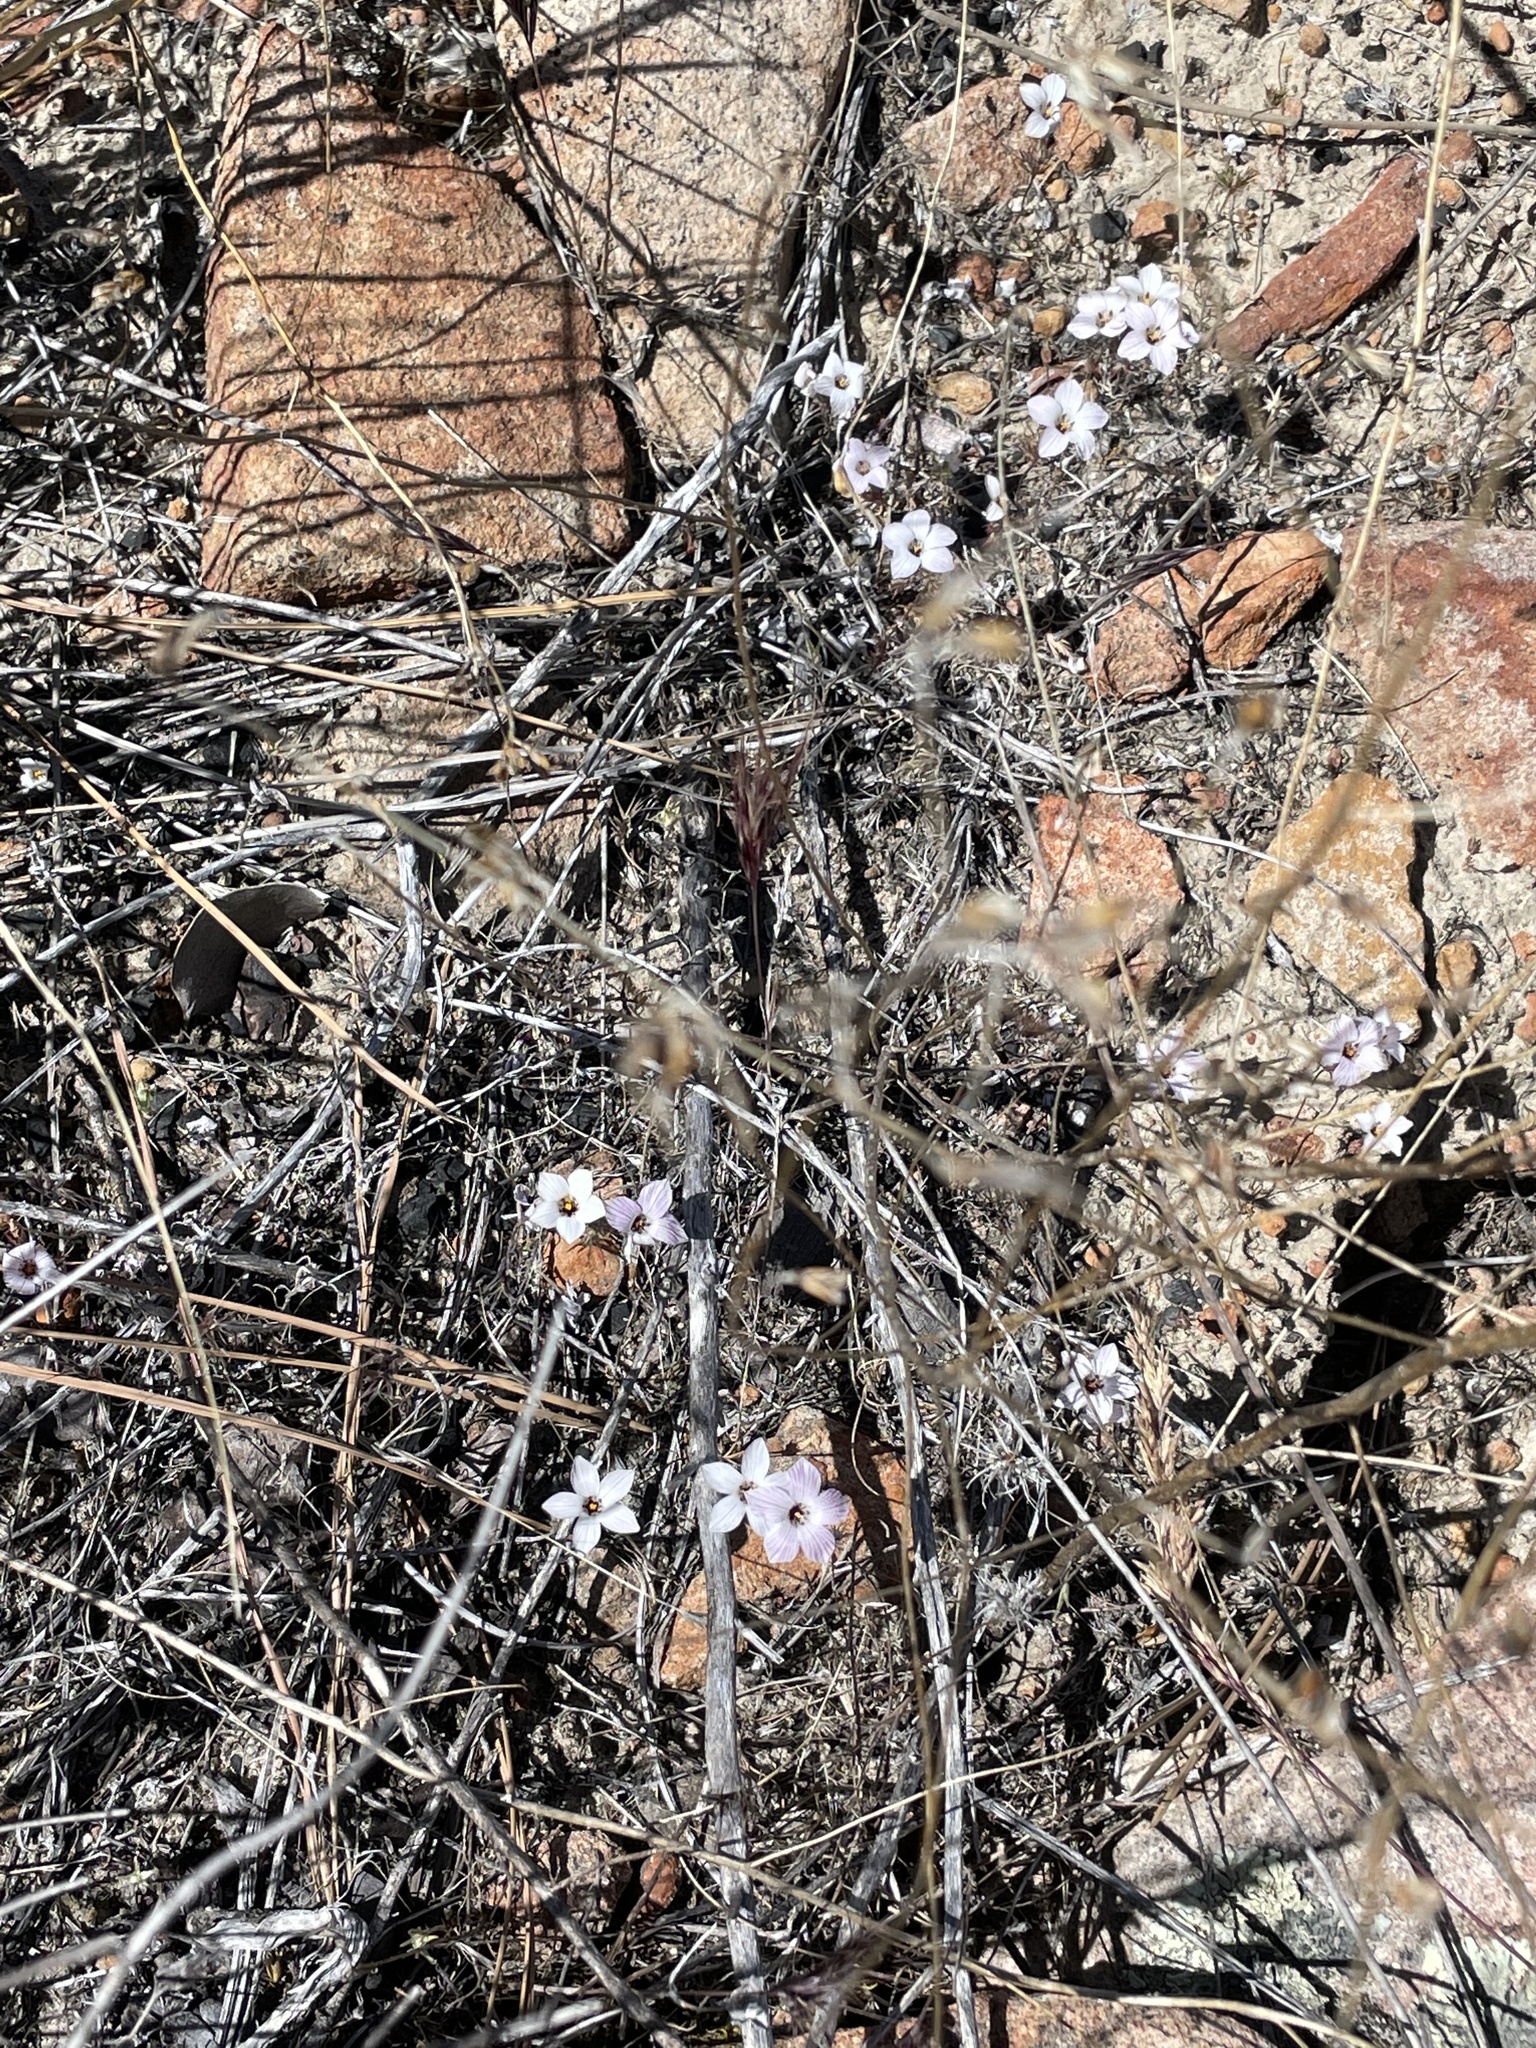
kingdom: Plantae
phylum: Tracheophyta
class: Magnoliopsida
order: Ericales
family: Polemoniaceae
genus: Linanthus
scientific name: Linanthus orcuttii
